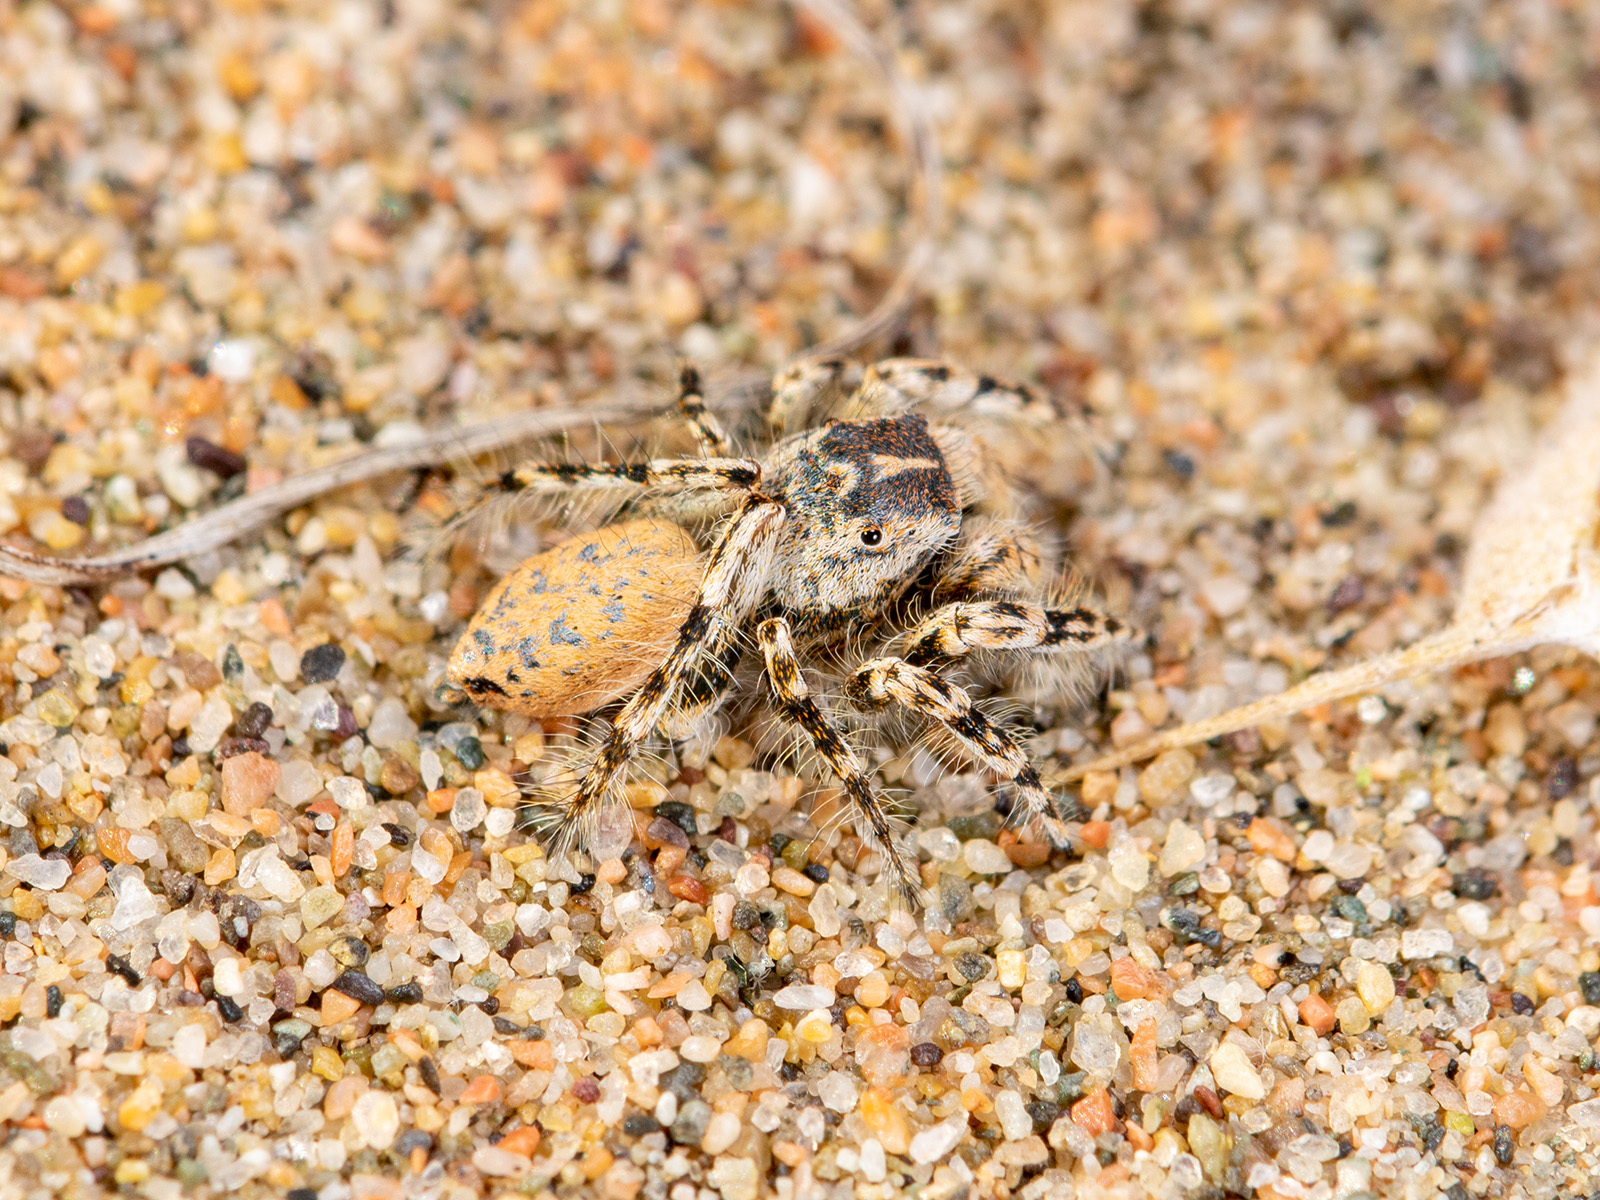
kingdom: Animalia
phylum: Arthropoda
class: Arachnida
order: Araneae
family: Salticidae
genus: Yllenus
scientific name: Yllenus turkestanicus
